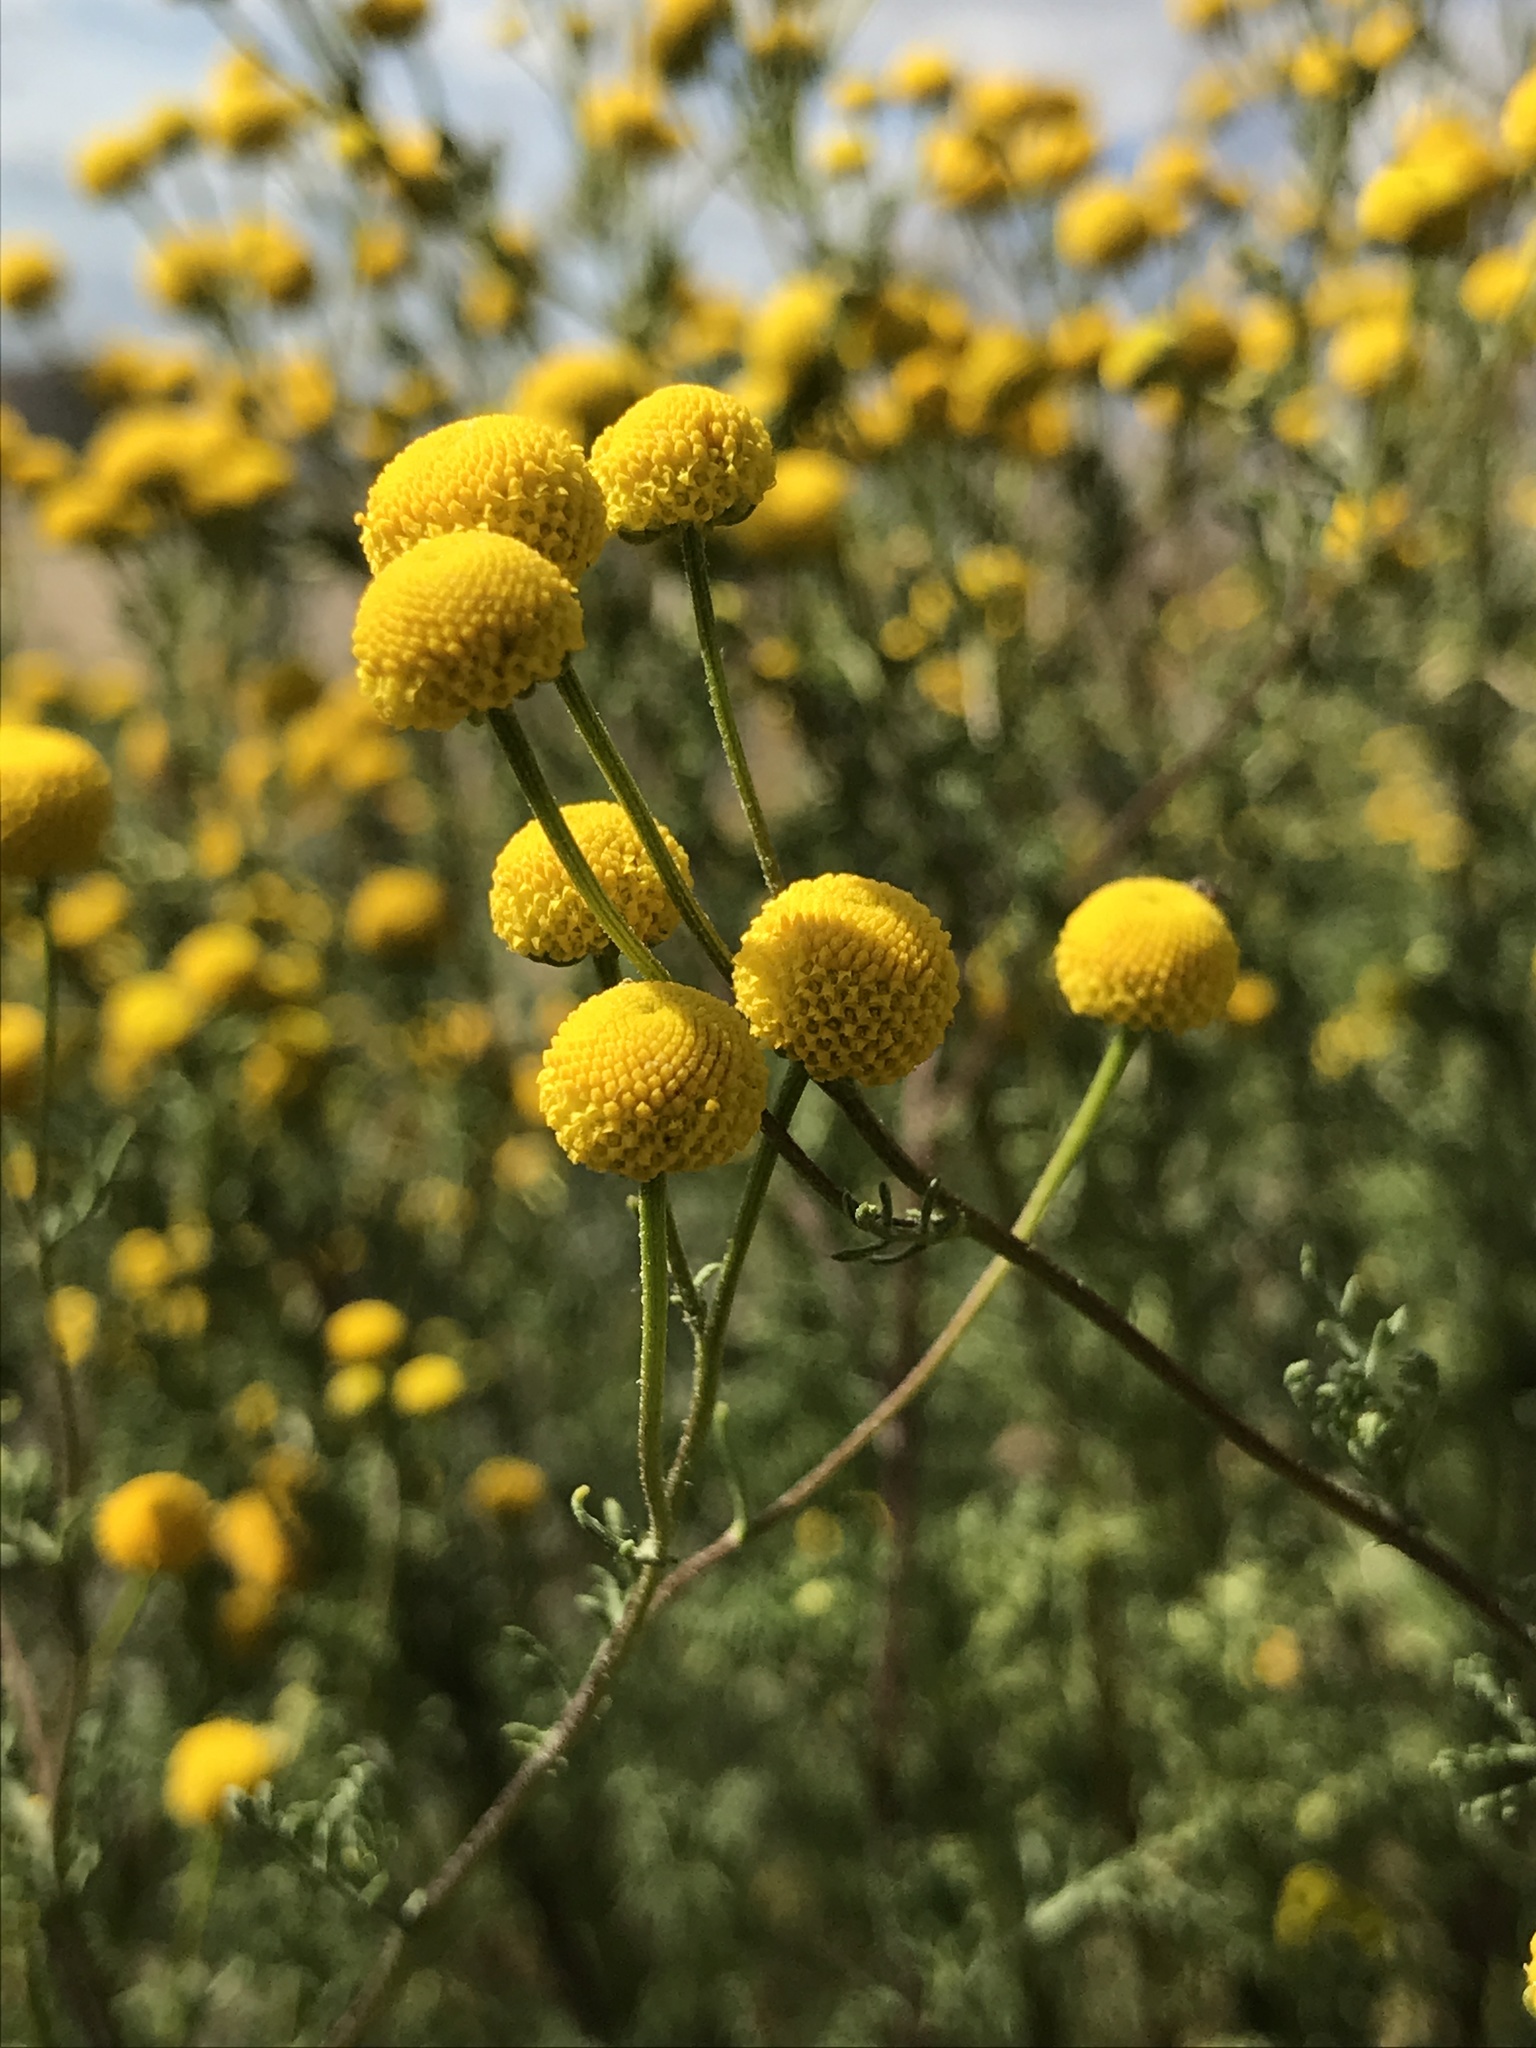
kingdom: Plantae
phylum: Tracheophyta
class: Magnoliopsida
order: Asterales
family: Asteraceae
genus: Oncosiphon
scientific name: Oncosiphon pilulifer
